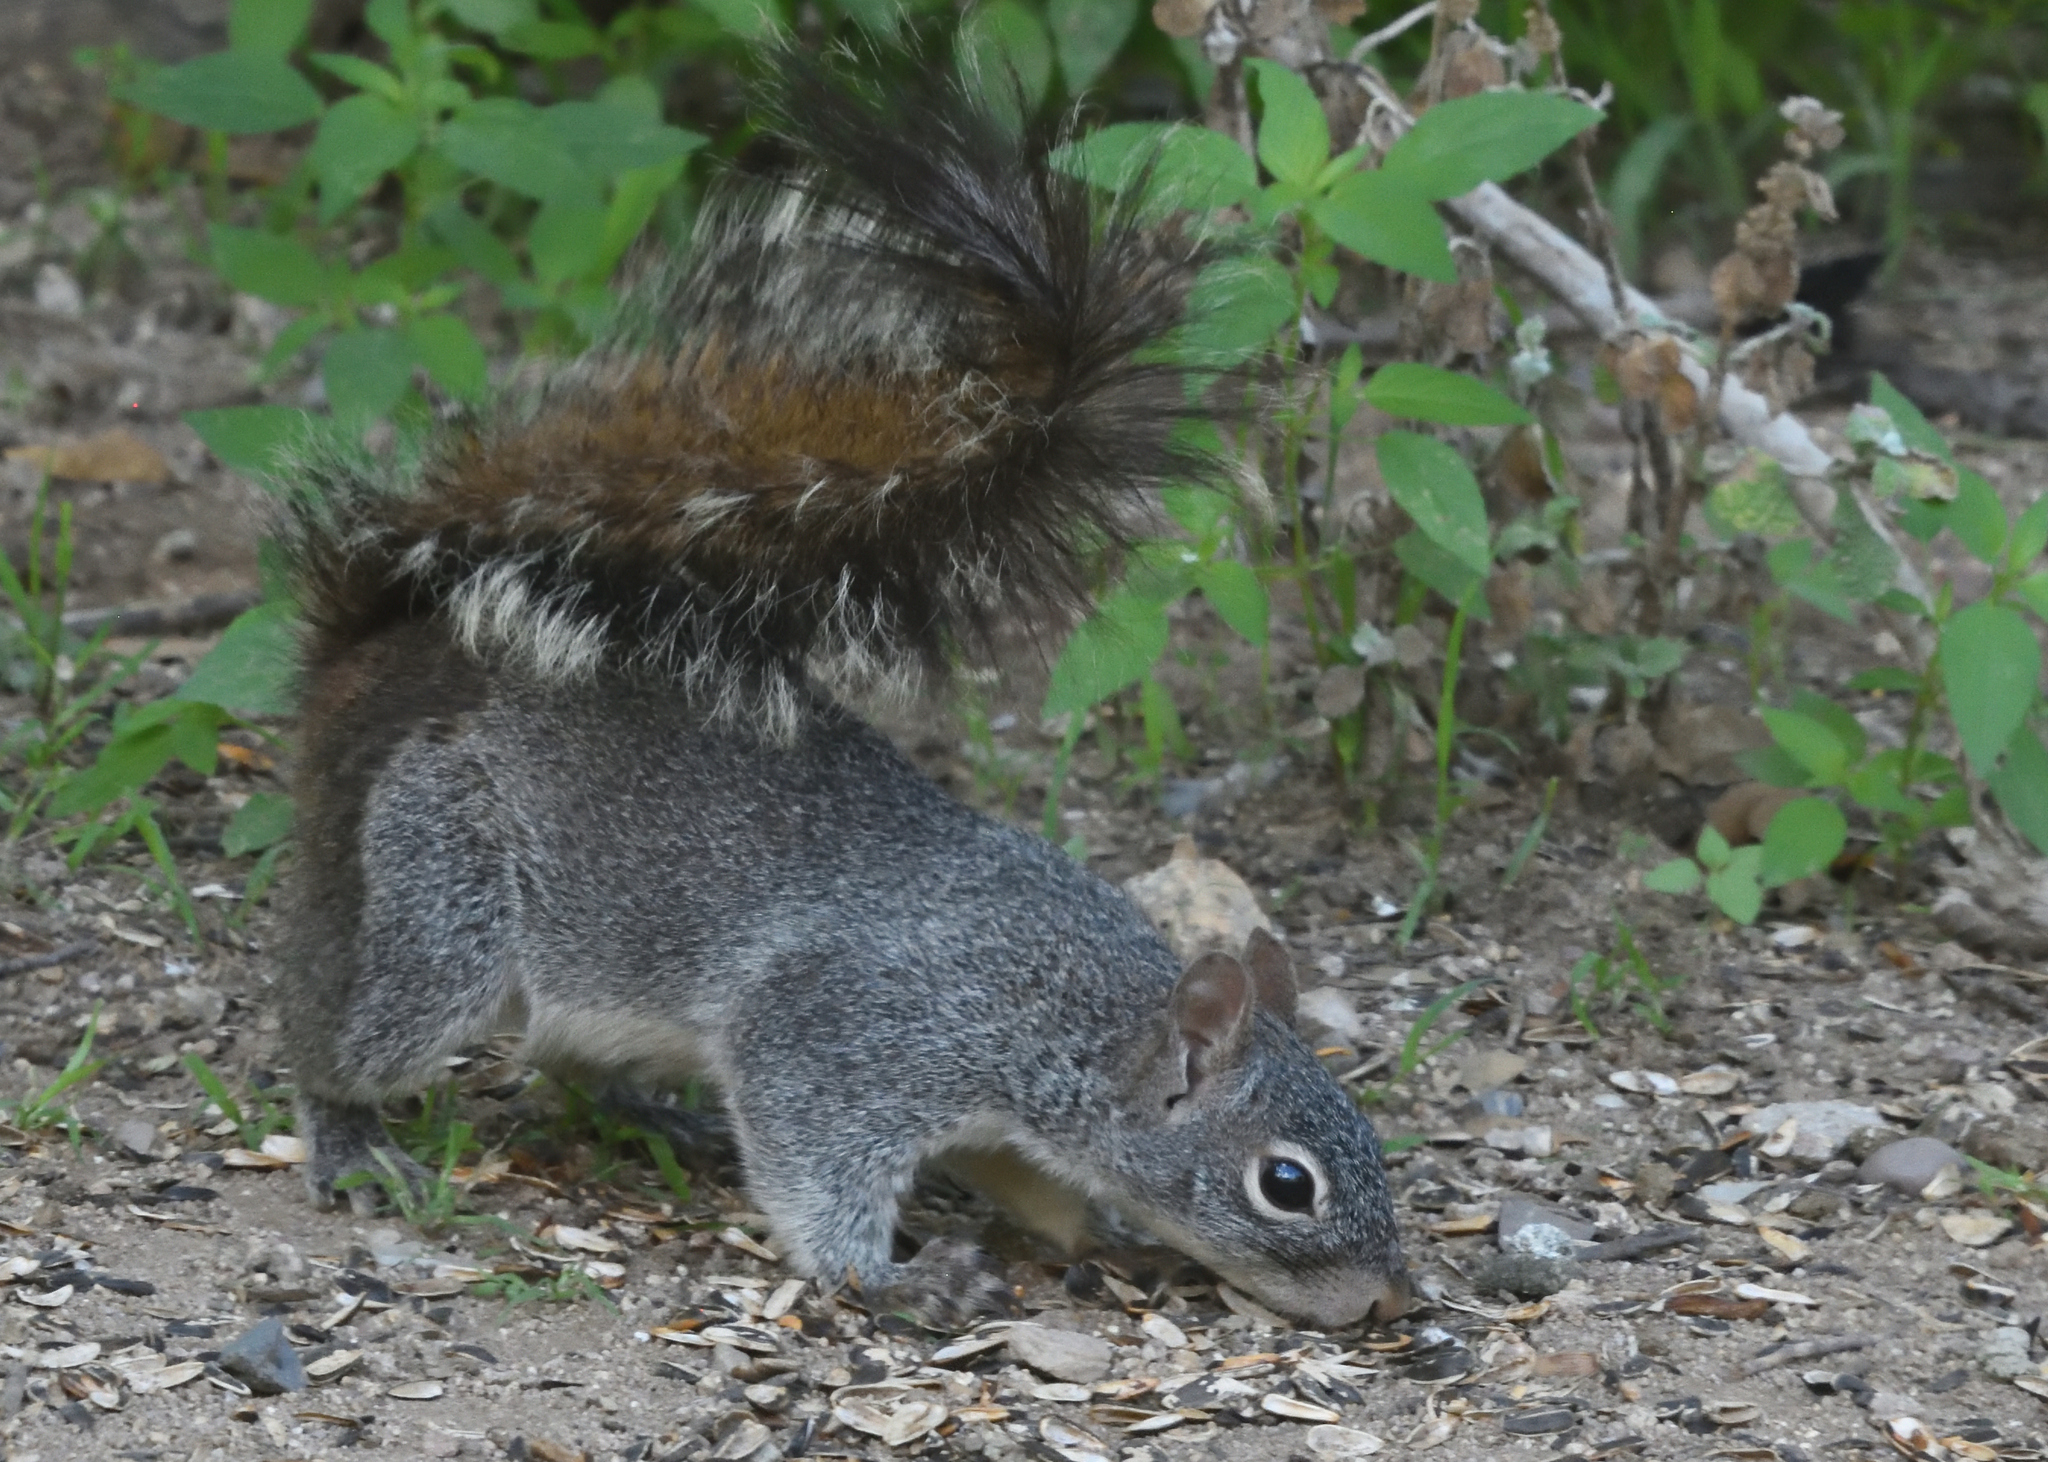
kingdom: Animalia
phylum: Chordata
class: Mammalia
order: Rodentia
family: Sciuridae
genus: Sciurus
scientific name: Sciurus arizonensis
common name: Arizona gray squirrel
